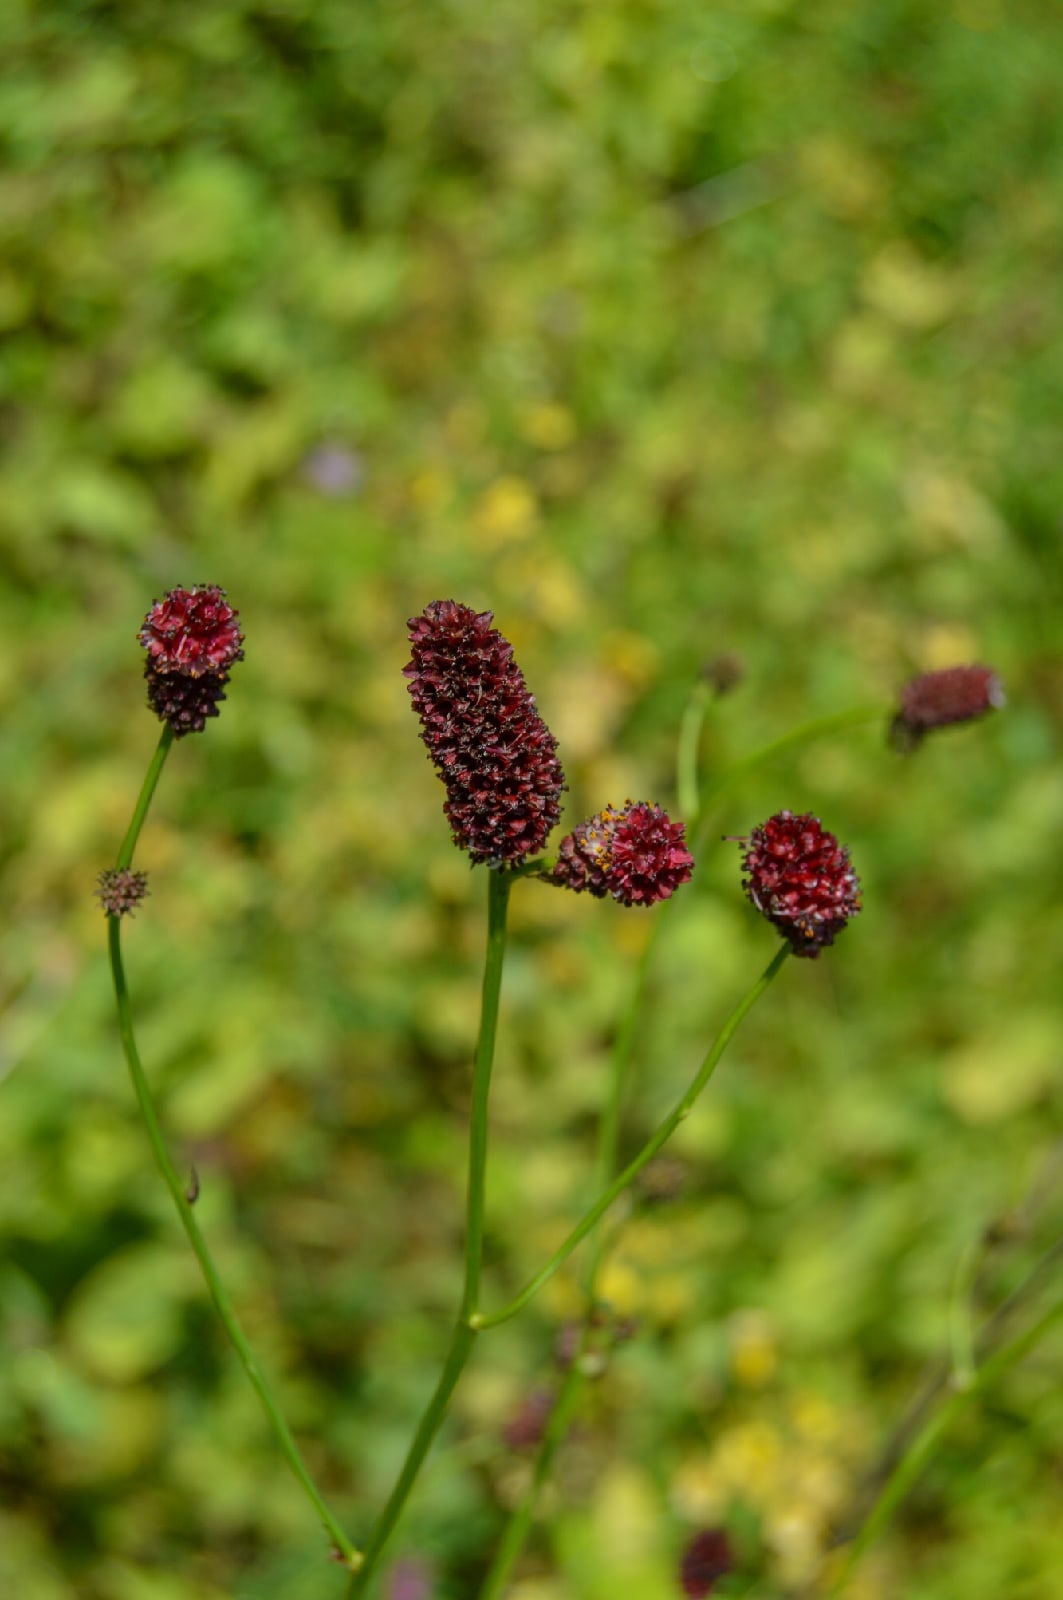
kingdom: Plantae
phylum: Tracheophyta
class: Magnoliopsida
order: Rosales
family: Rosaceae
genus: Sanguisorba
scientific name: Sanguisorba officinalis
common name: Great burnet
